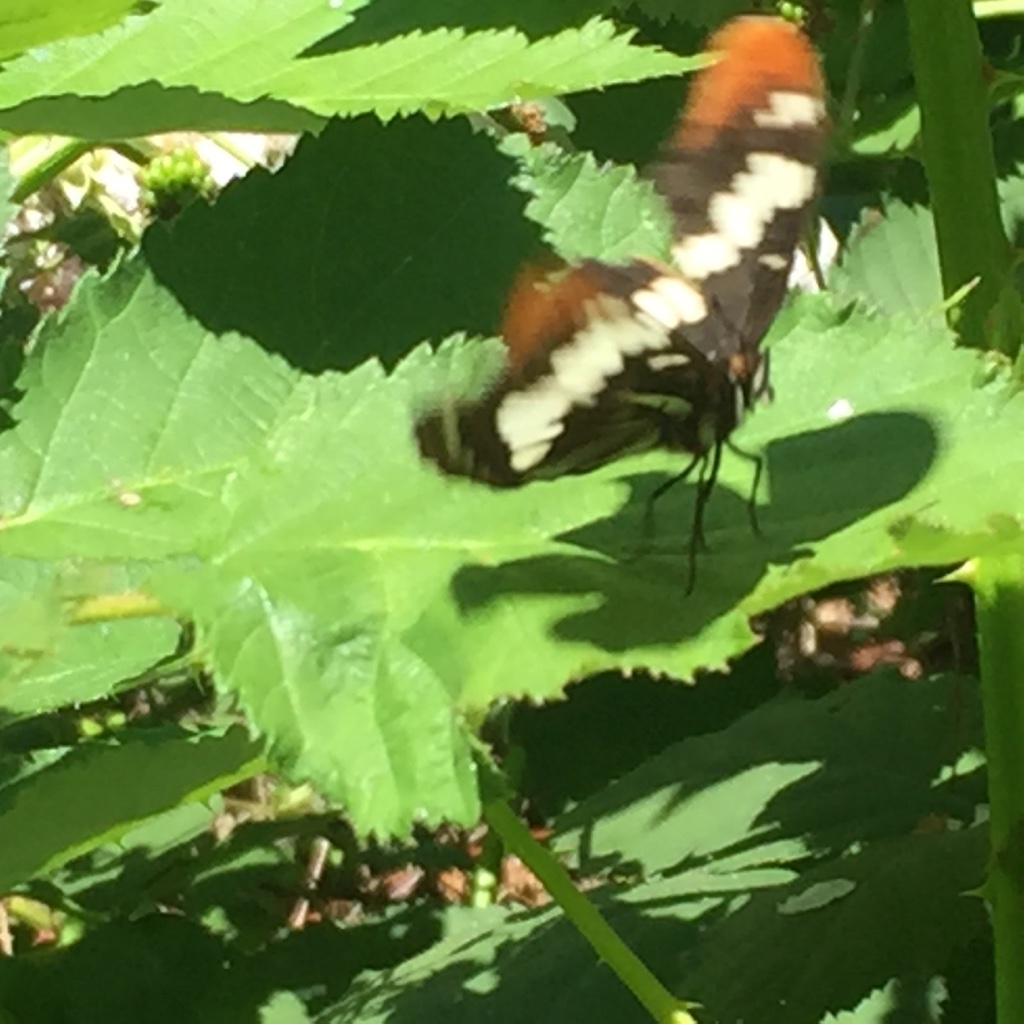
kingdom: Animalia
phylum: Arthropoda
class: Insecta
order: Lepidoptera
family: Nymphalidae
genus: Limenitis
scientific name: Limenitis lorquini
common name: Lorquin's admiral
